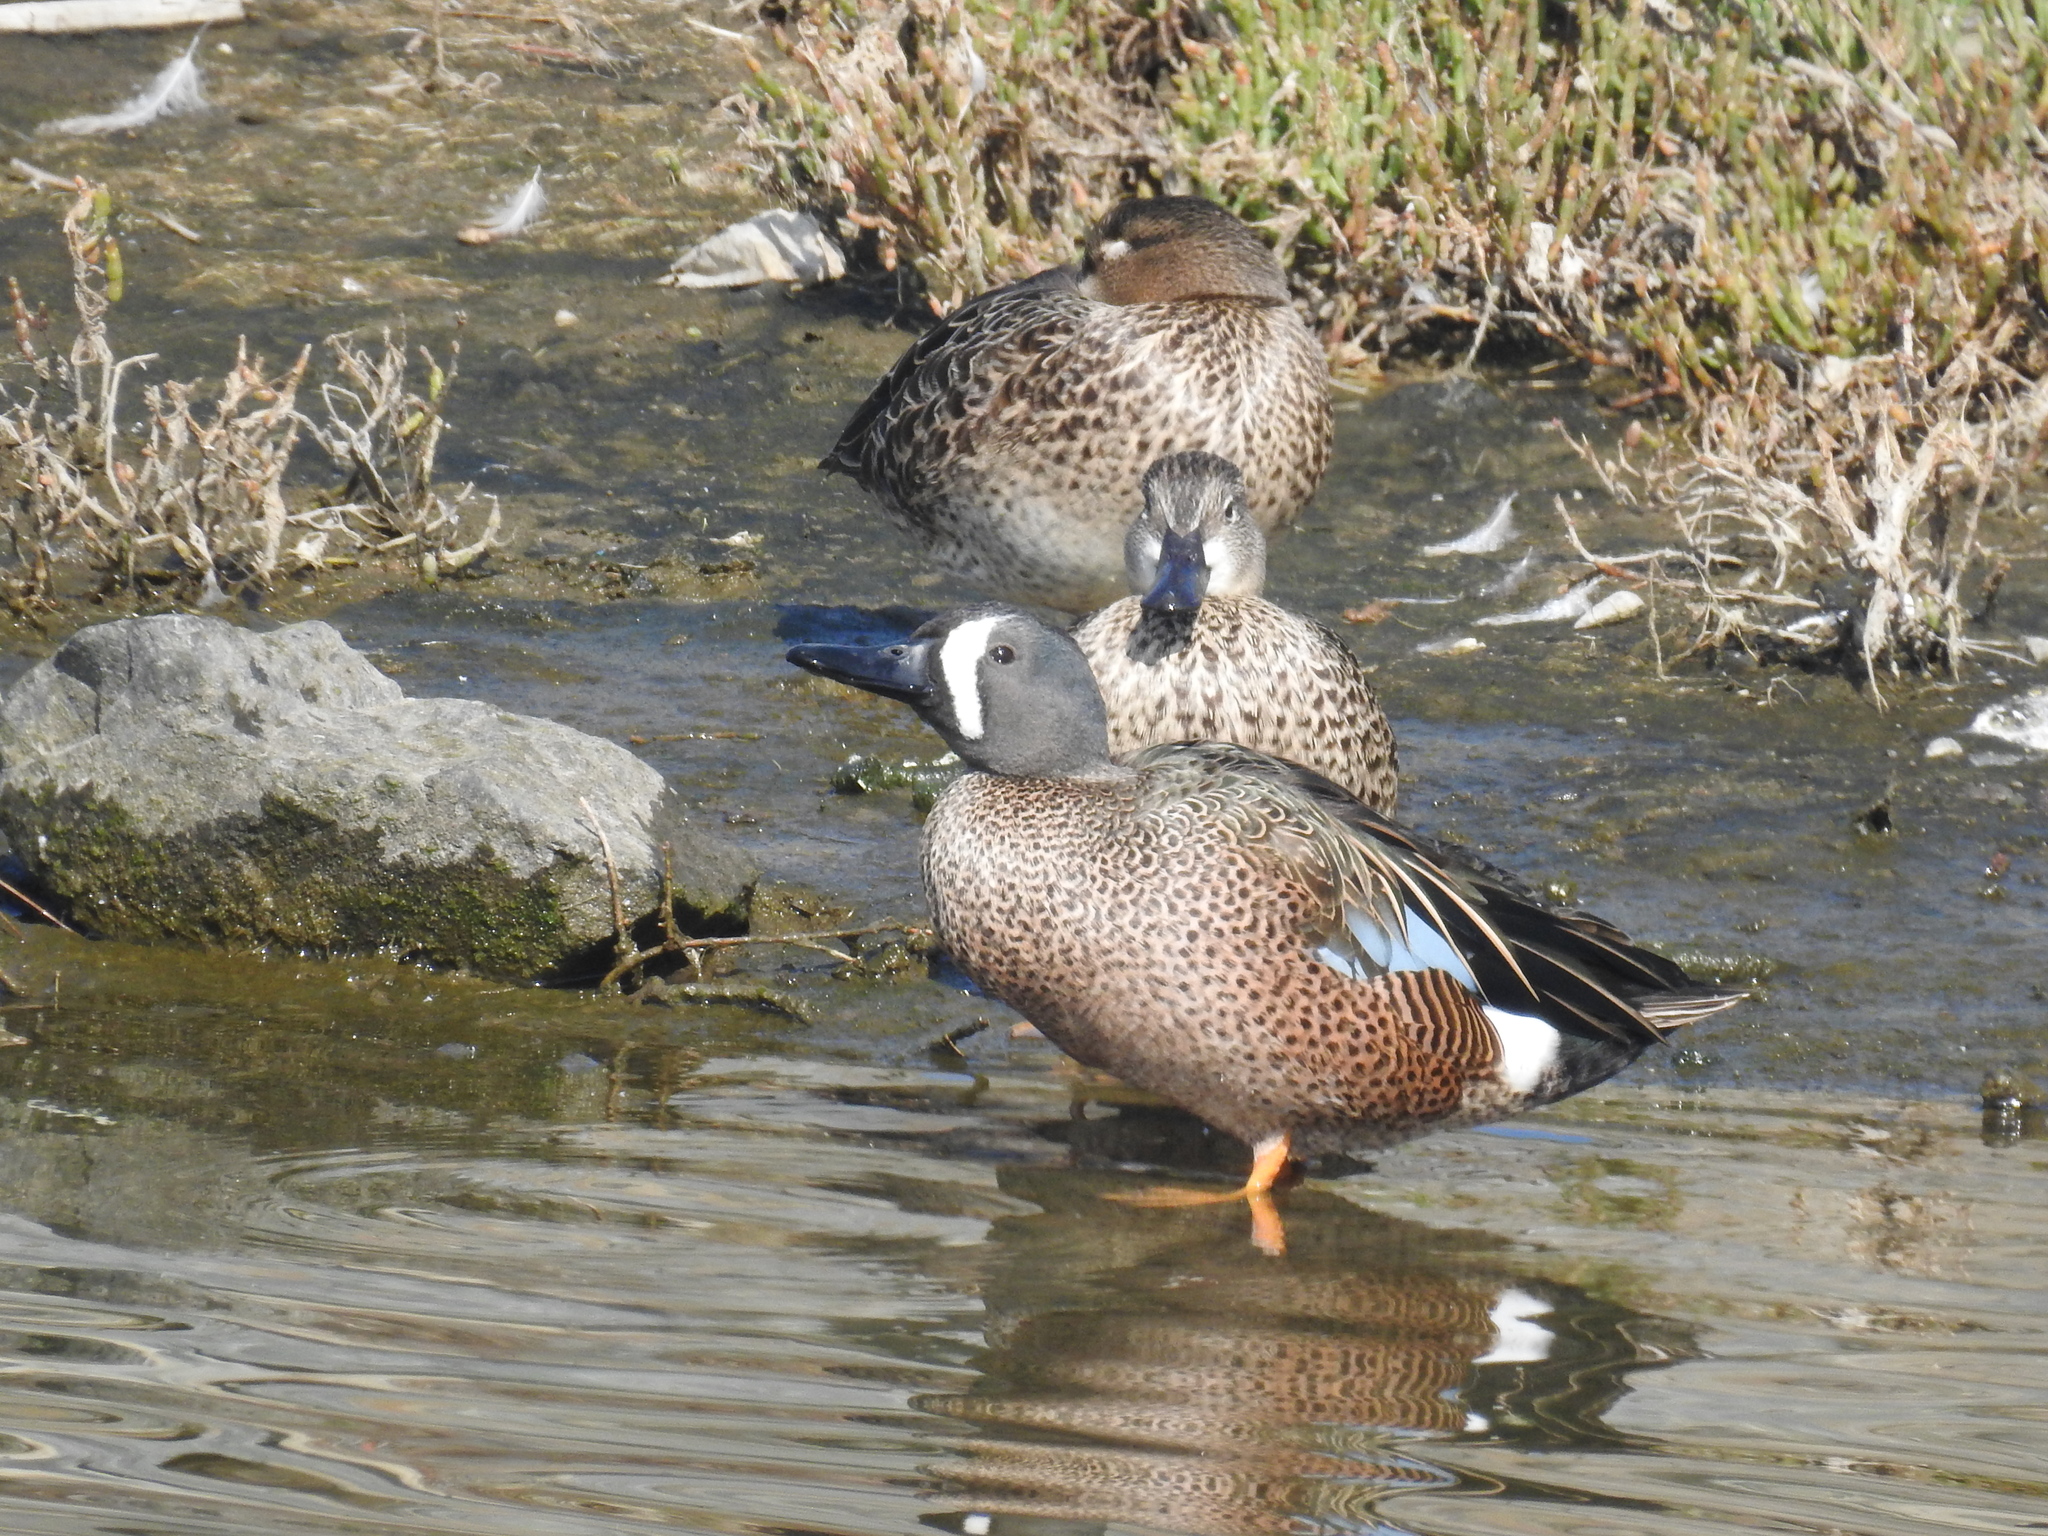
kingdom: Animalia
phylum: Chordata
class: Aves
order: Anseriformes
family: Anatidae
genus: Spatula
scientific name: Spatula discors
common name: Blue-winged teal
